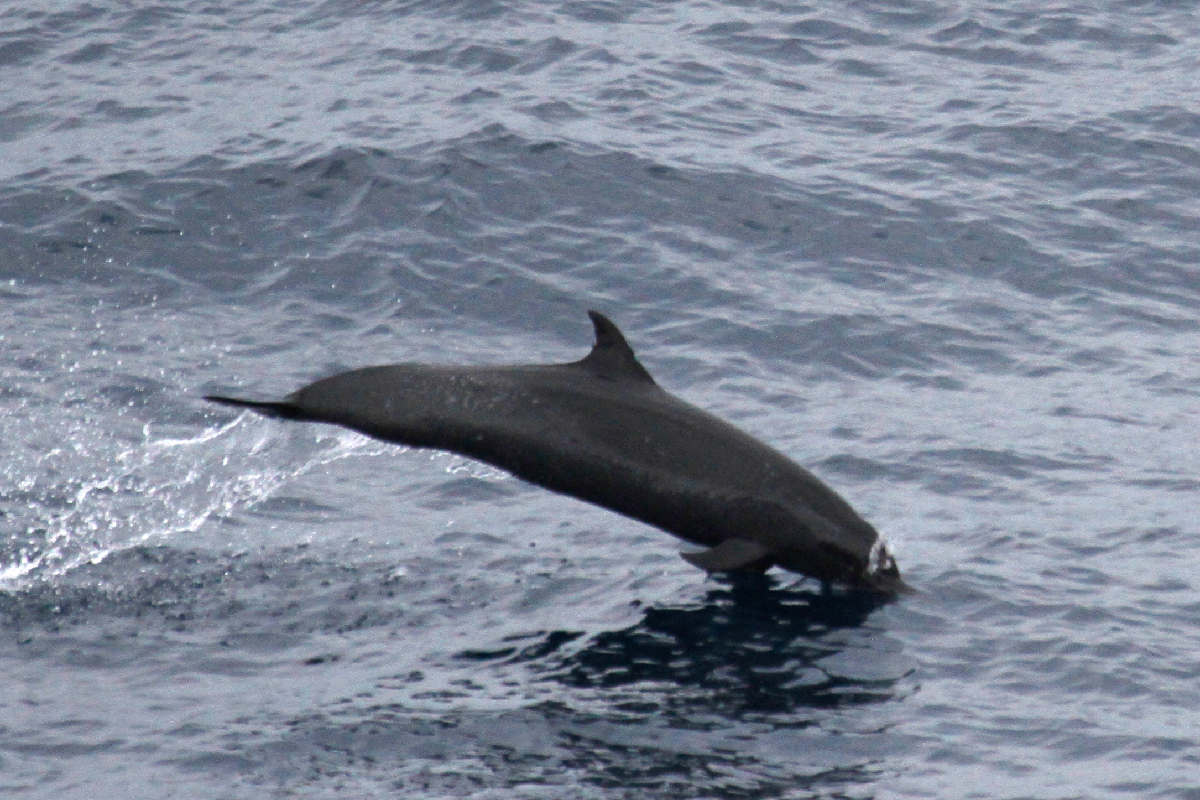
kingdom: Animalia
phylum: Chordata
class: Mammalia
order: Cetacea
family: Delphinidae
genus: Stenella
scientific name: Stenella attenuata
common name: Pantropical spotted dolphin
